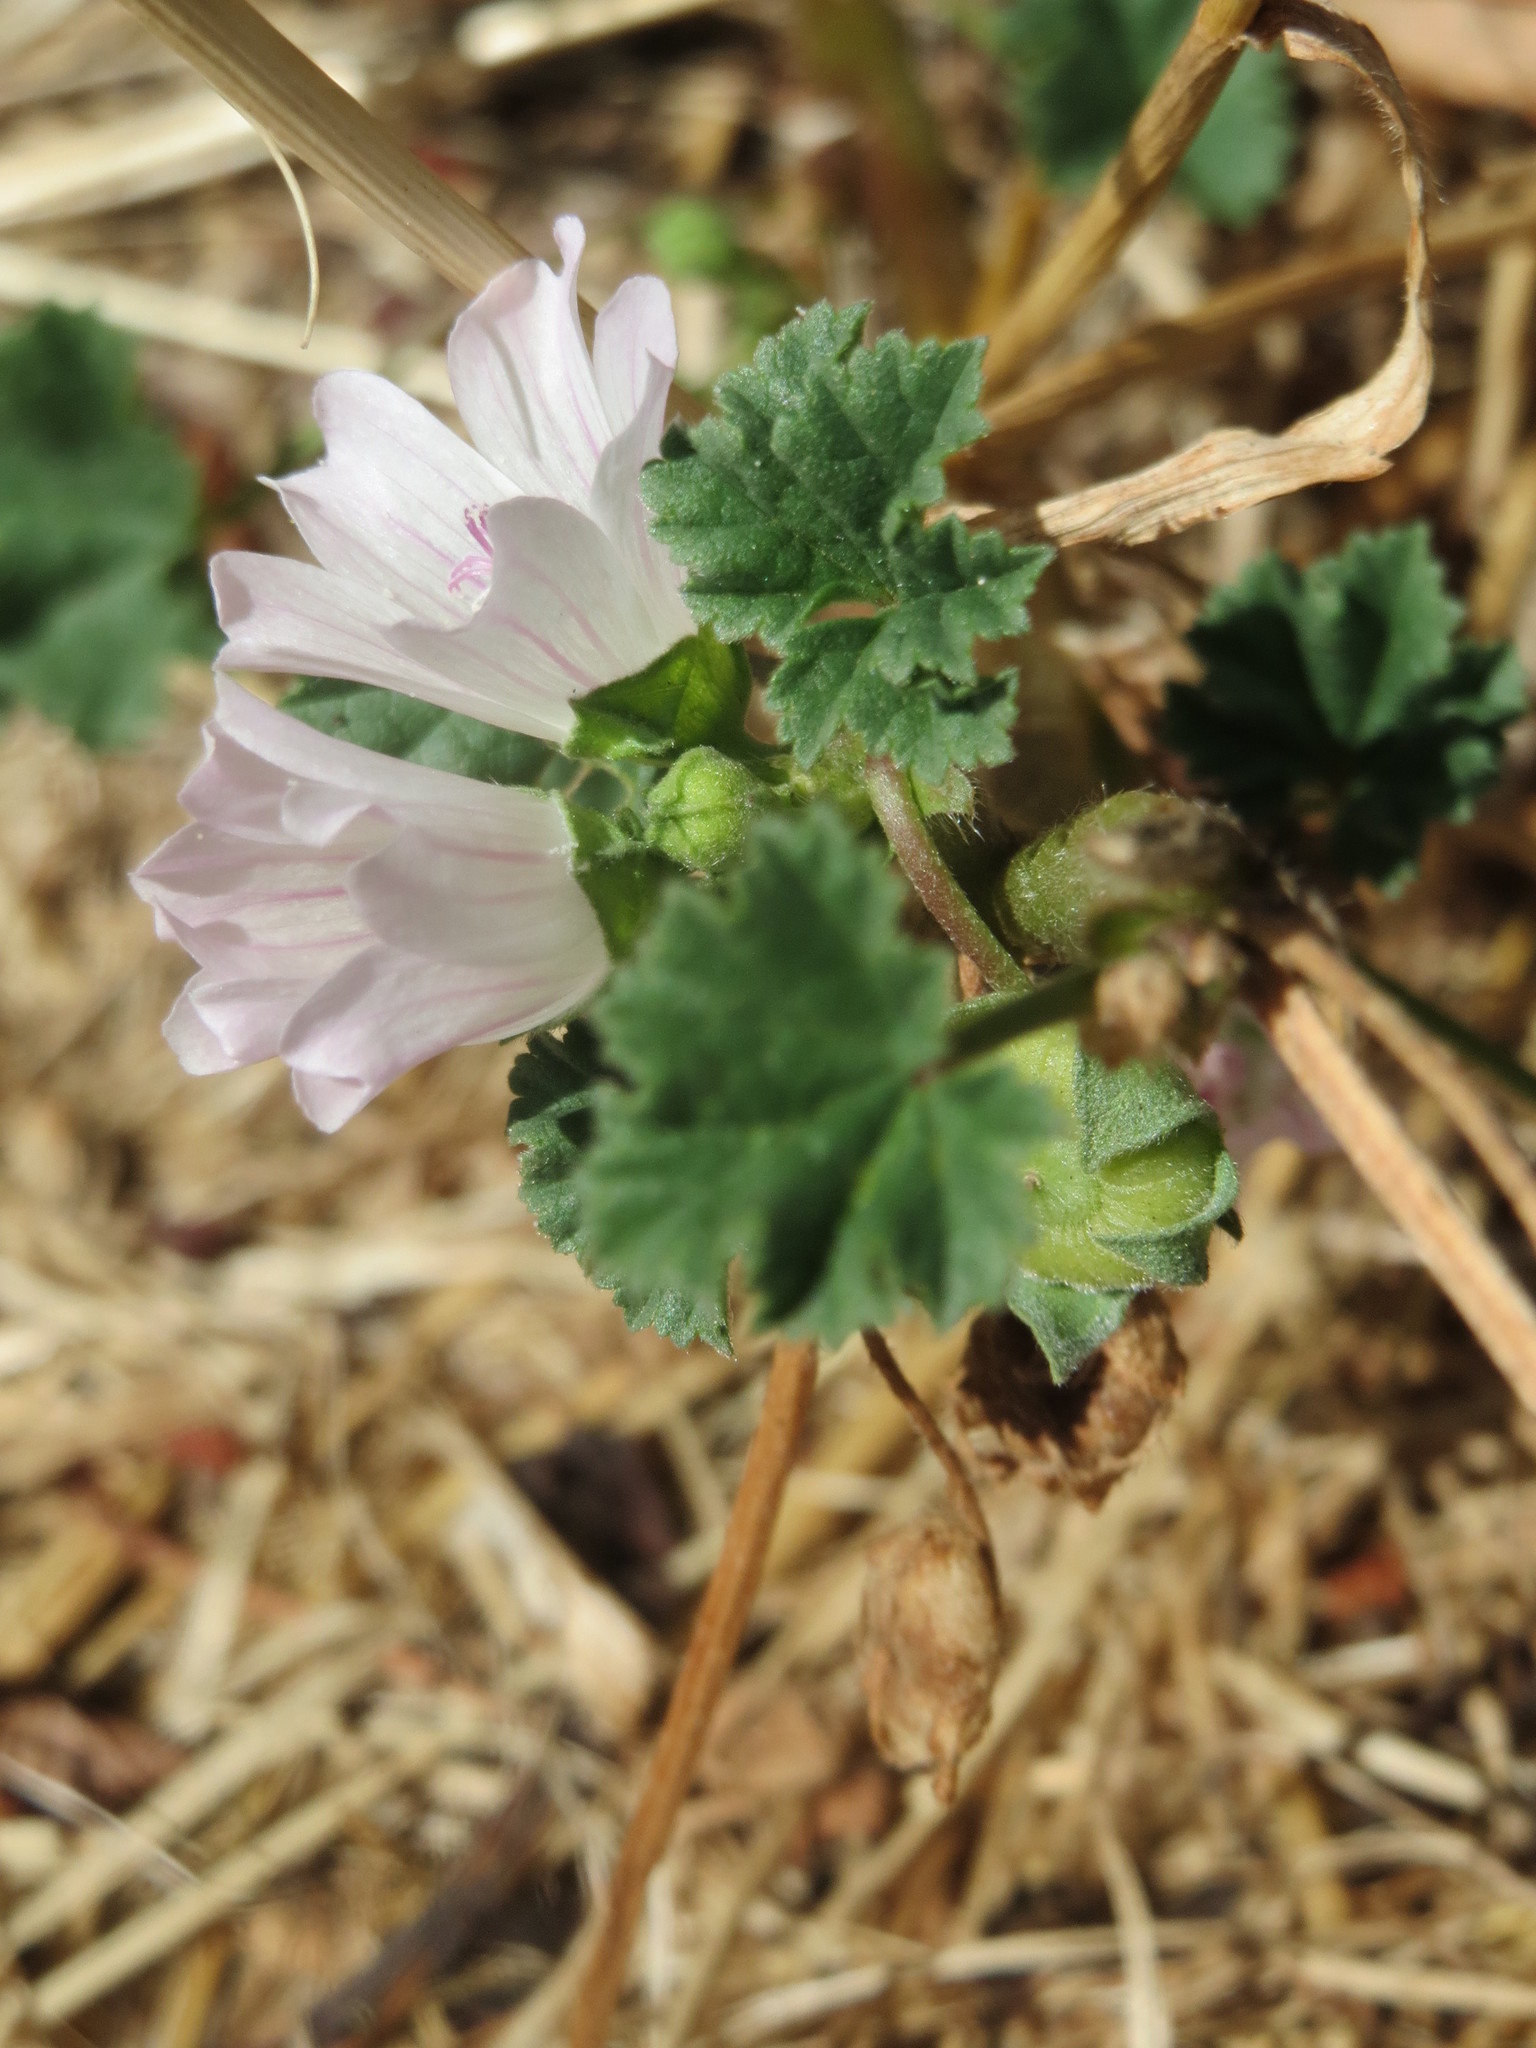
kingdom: Plantae
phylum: Tracheophyta
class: Magnoliopsida
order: Malvales
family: Malvaceae
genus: Malva
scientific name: Malva neglecta
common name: Common mallow
